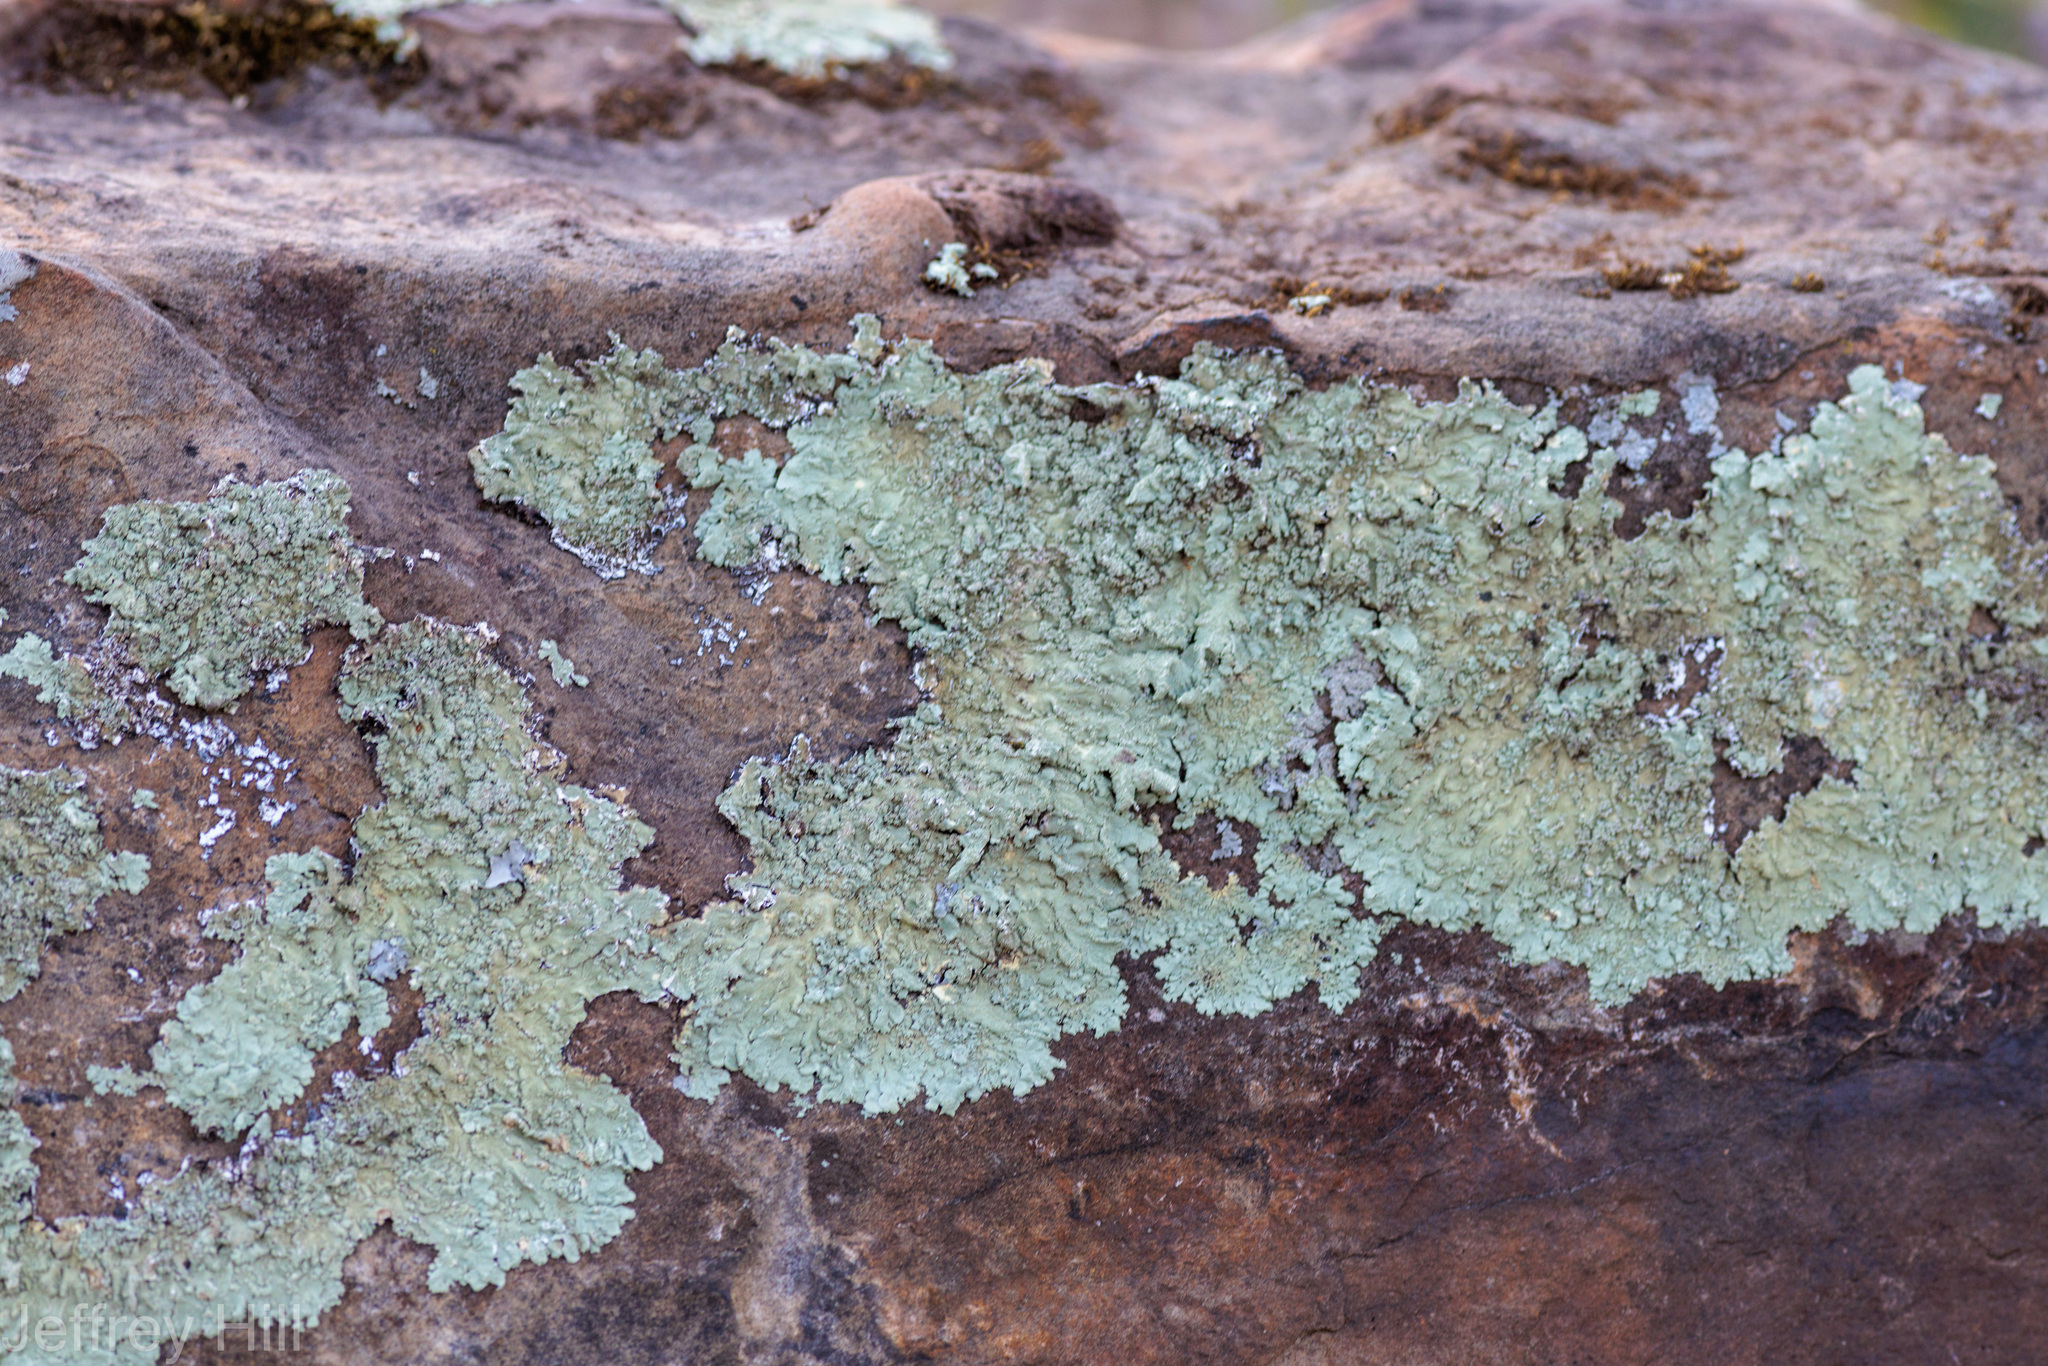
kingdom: Fungi
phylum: Ascomycota
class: Lecanoromycetes
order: Lecanorales
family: Parmeliaceae
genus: Flavoparmelia
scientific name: Flavoparmelia caperata
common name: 40-mile per hour lichen
